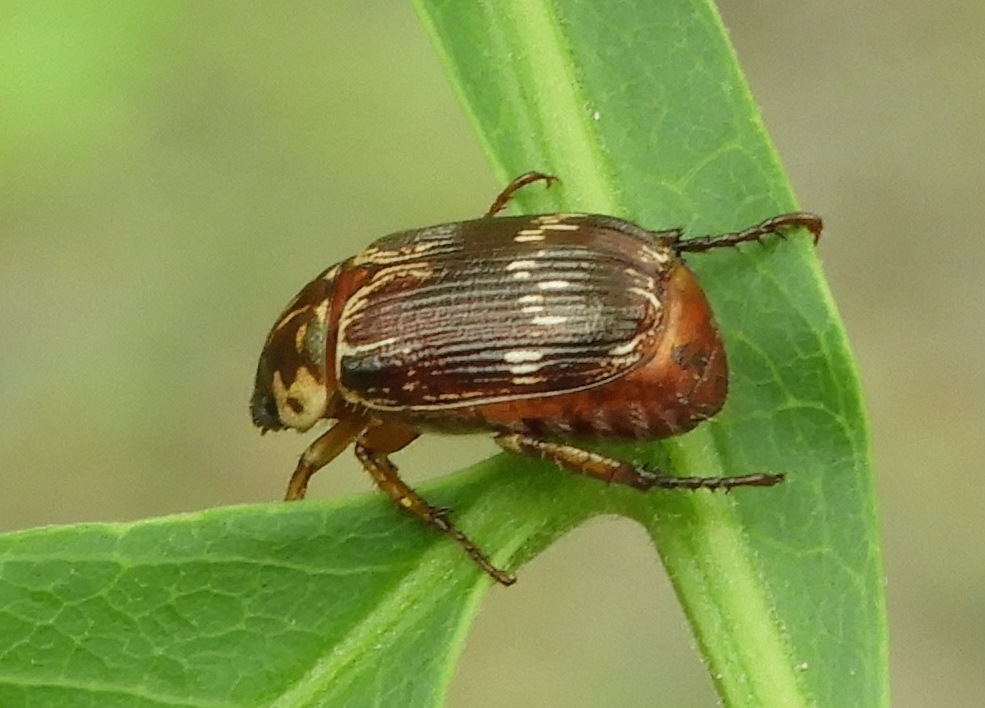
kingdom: Animalia
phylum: Arthropoda
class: Insecta
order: Coleoptera
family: Scarabaeidae
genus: Paranomala
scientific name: Paranomala histrionella
